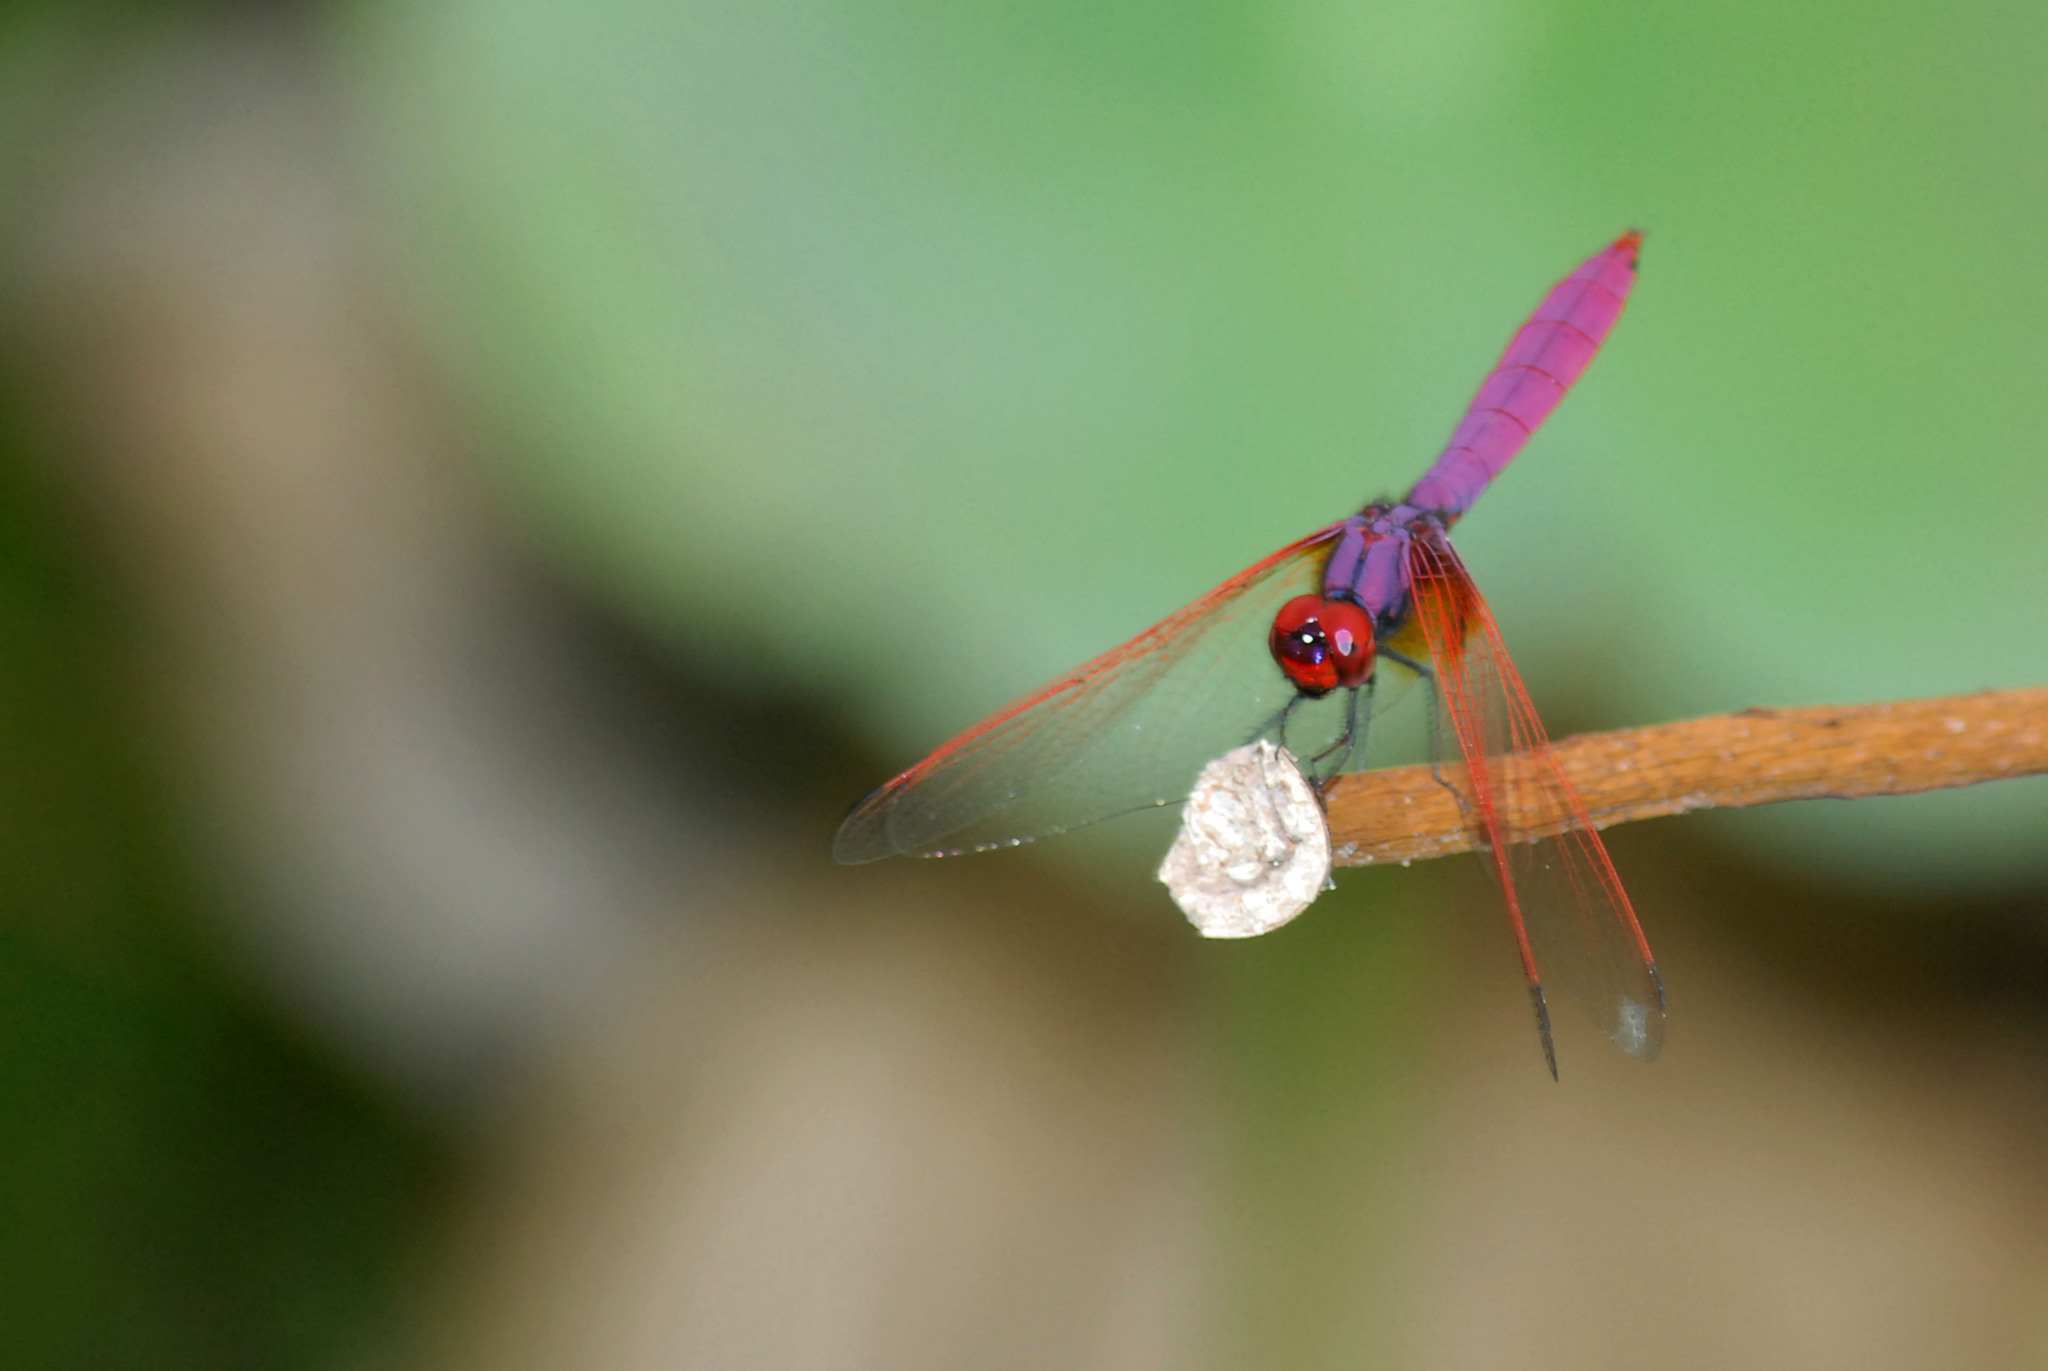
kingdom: Animalia
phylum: Arthropoda
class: Insecta
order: Odonata
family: Libellulidae
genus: Trithemis
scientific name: Trithemis aurora
